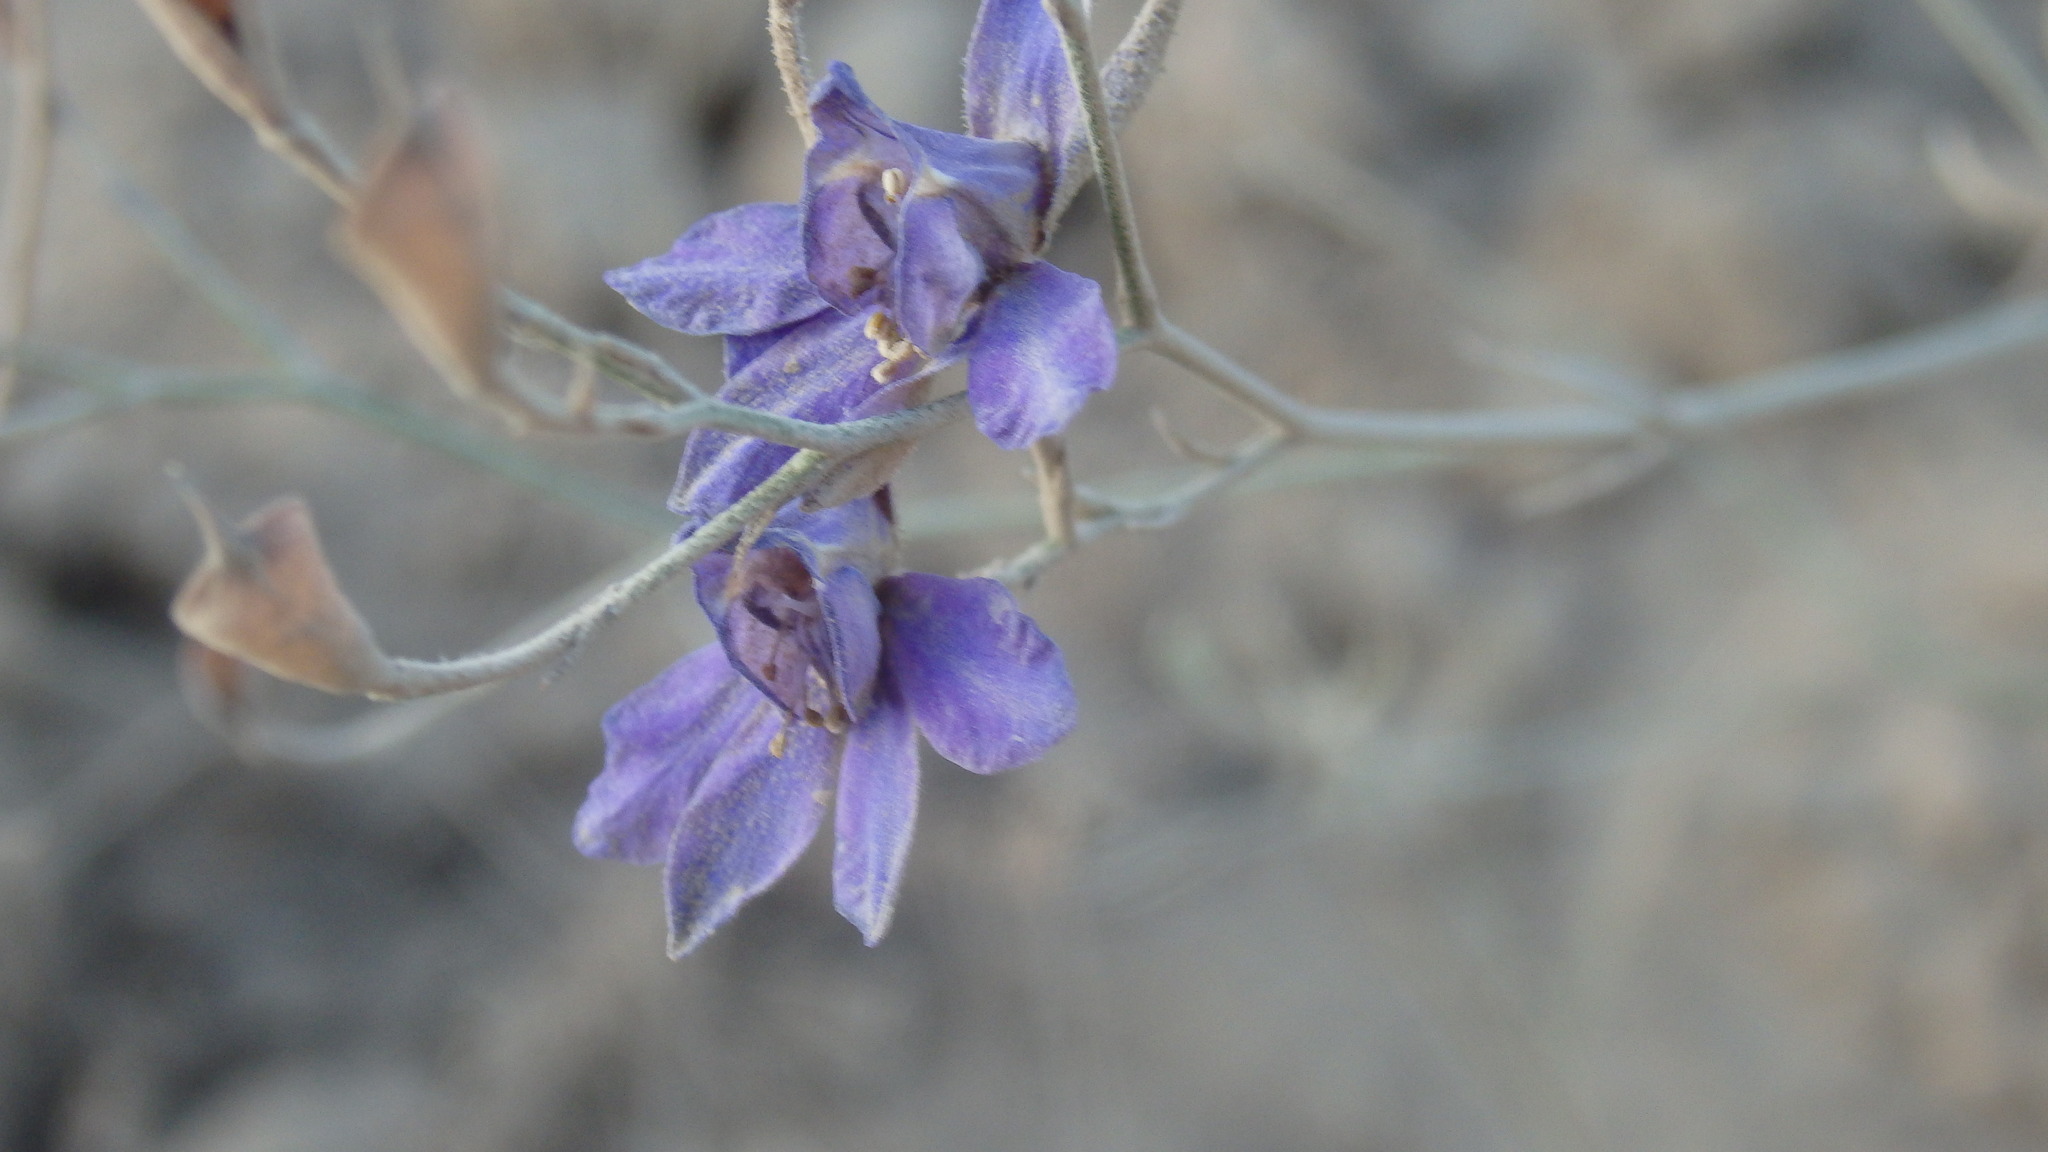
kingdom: Plantae
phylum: Tracheophyta
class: Magnoliopsida
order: Ranunculales
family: Ranunculaceae
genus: Delphinium
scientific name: Delphinium consolida
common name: Branching larkspur
